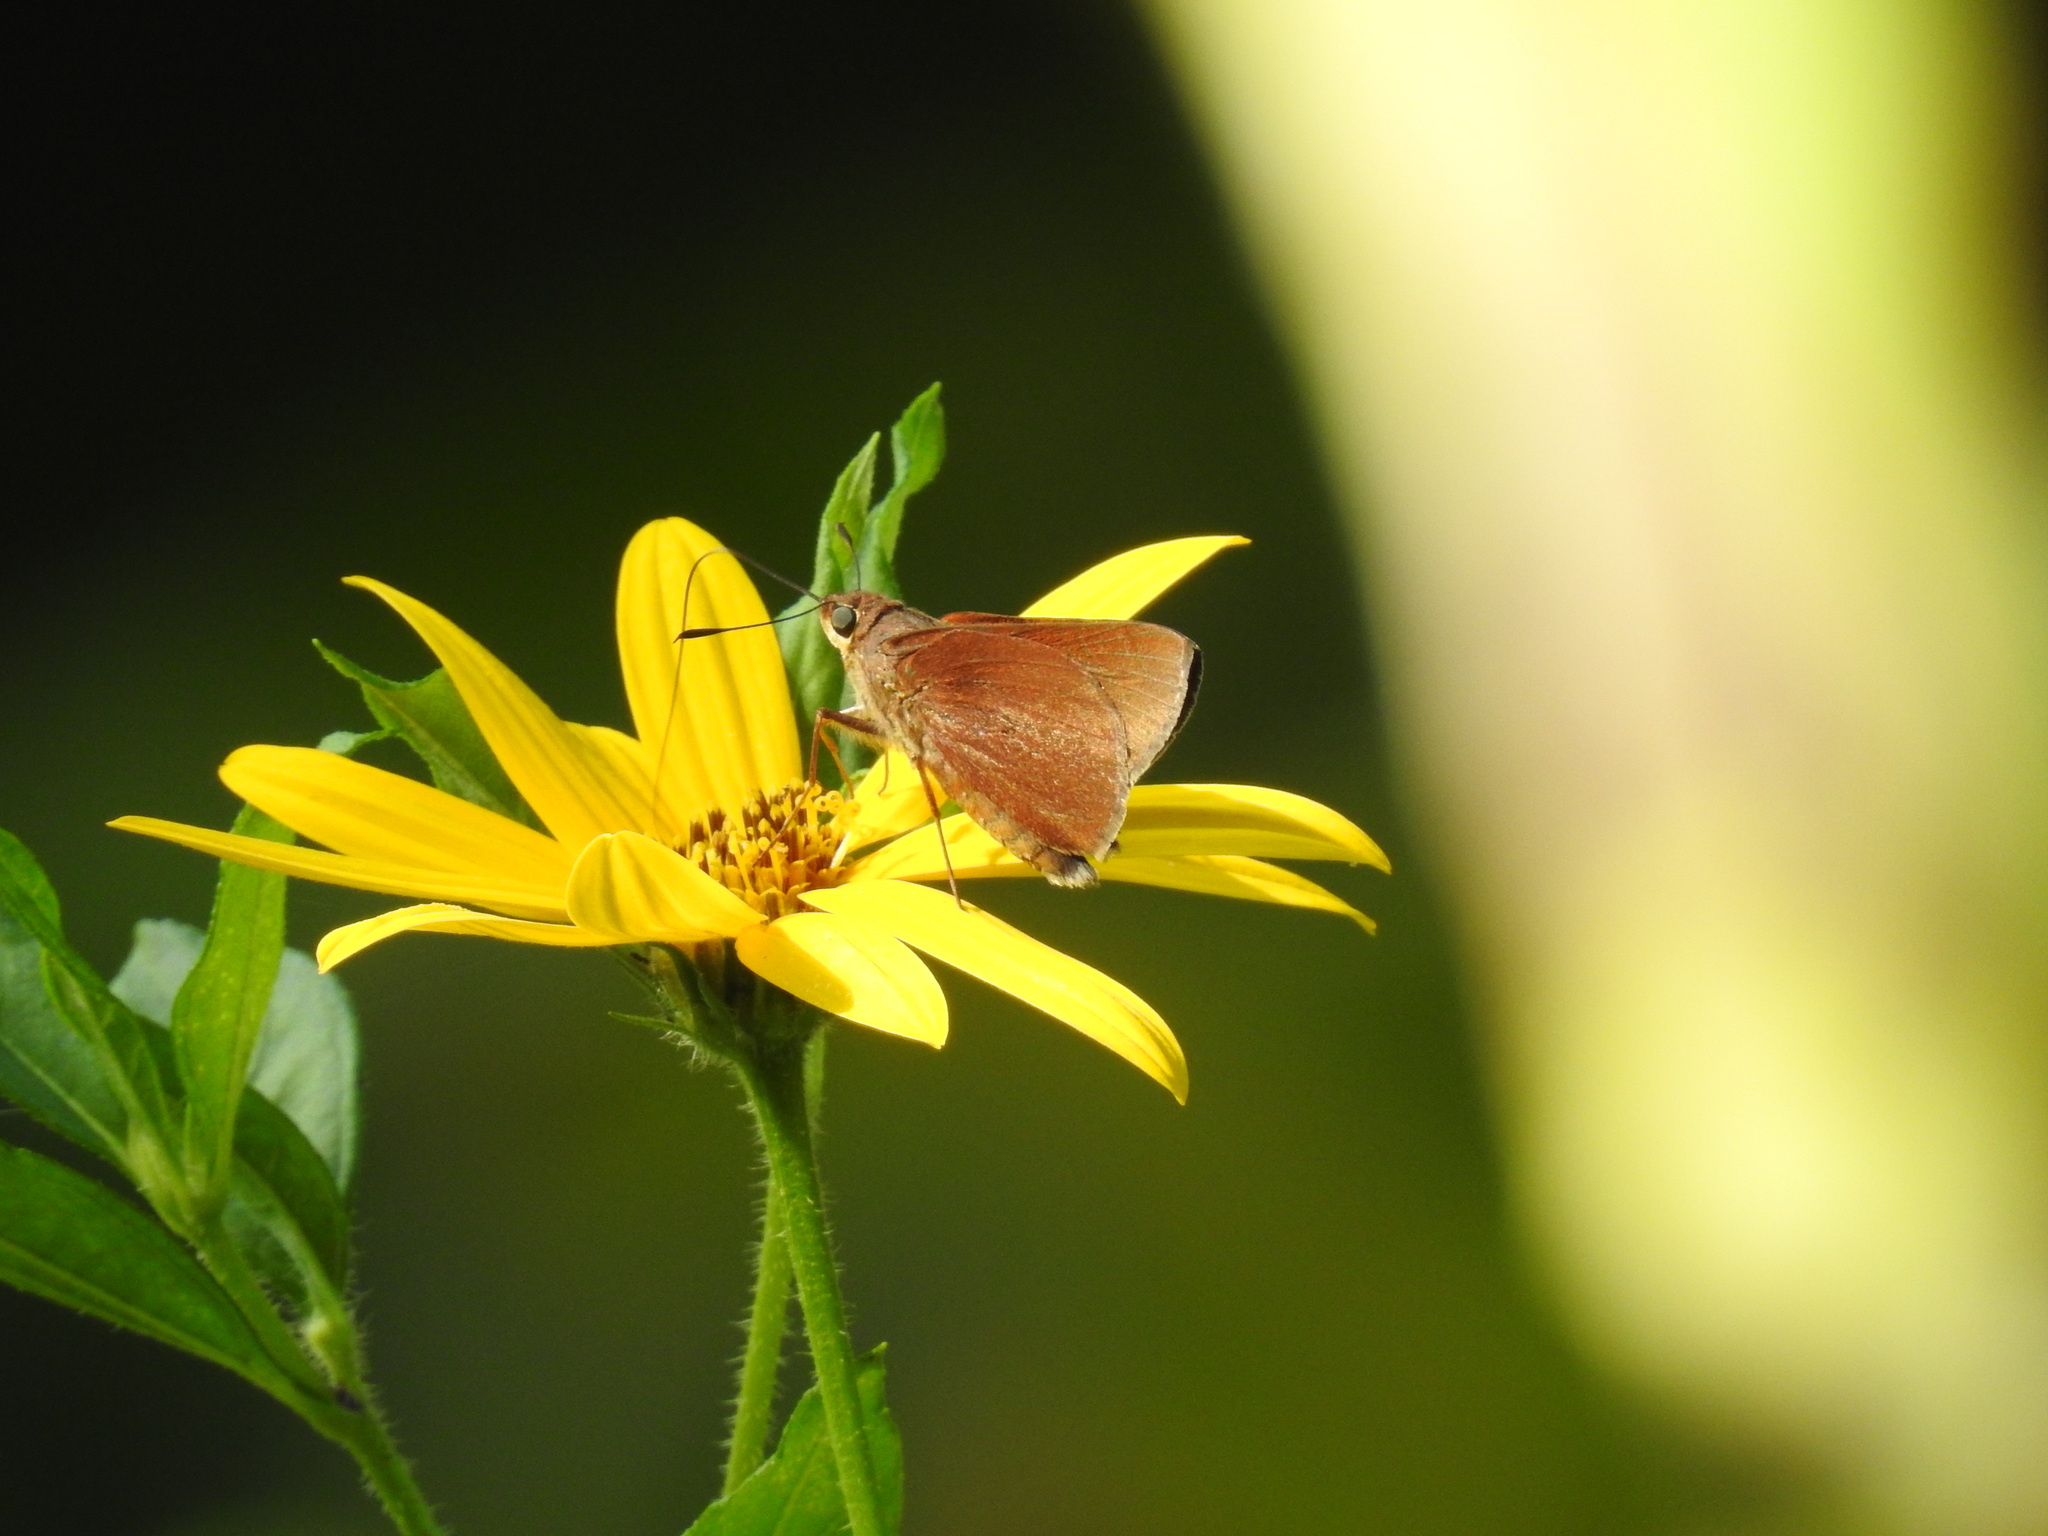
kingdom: Animalia
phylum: Arthropoda
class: Insecta
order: Lepidoptera
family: Hesperiidae
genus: Asbolis
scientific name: Asbolis capucinus
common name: Monk skipper
